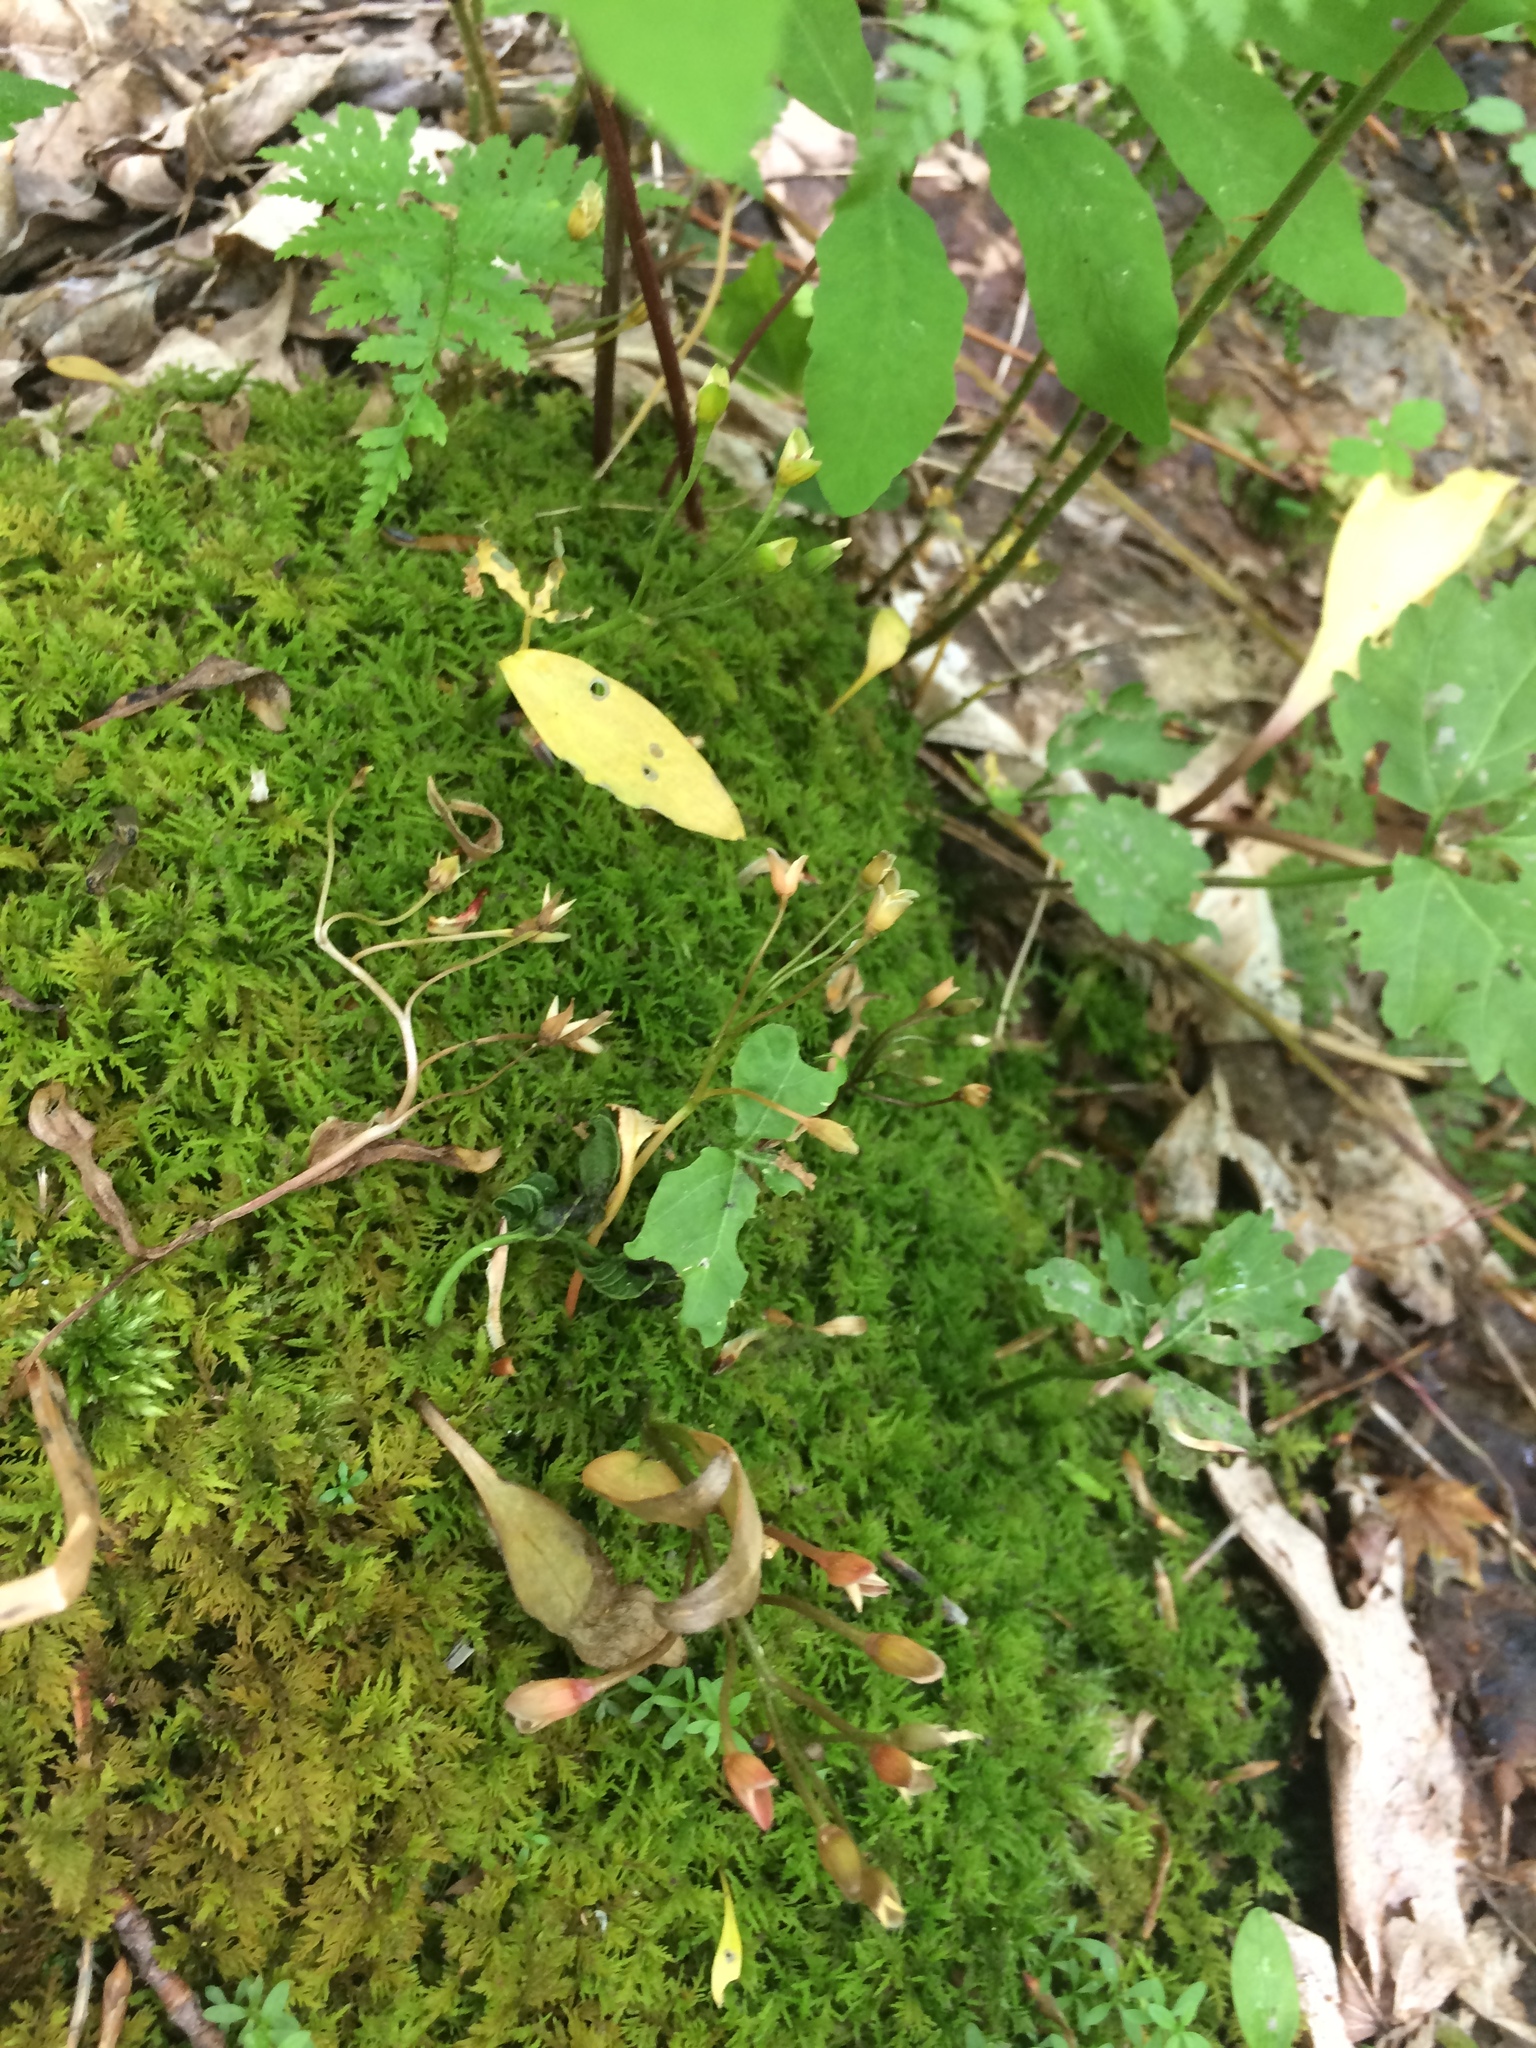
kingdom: Plantae
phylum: Tracheophyta
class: Magnoliopsida
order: Caryophyllales
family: Montiaceae
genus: Claytonia
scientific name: Claytonia caroliniana
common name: Carolina spring beauty
